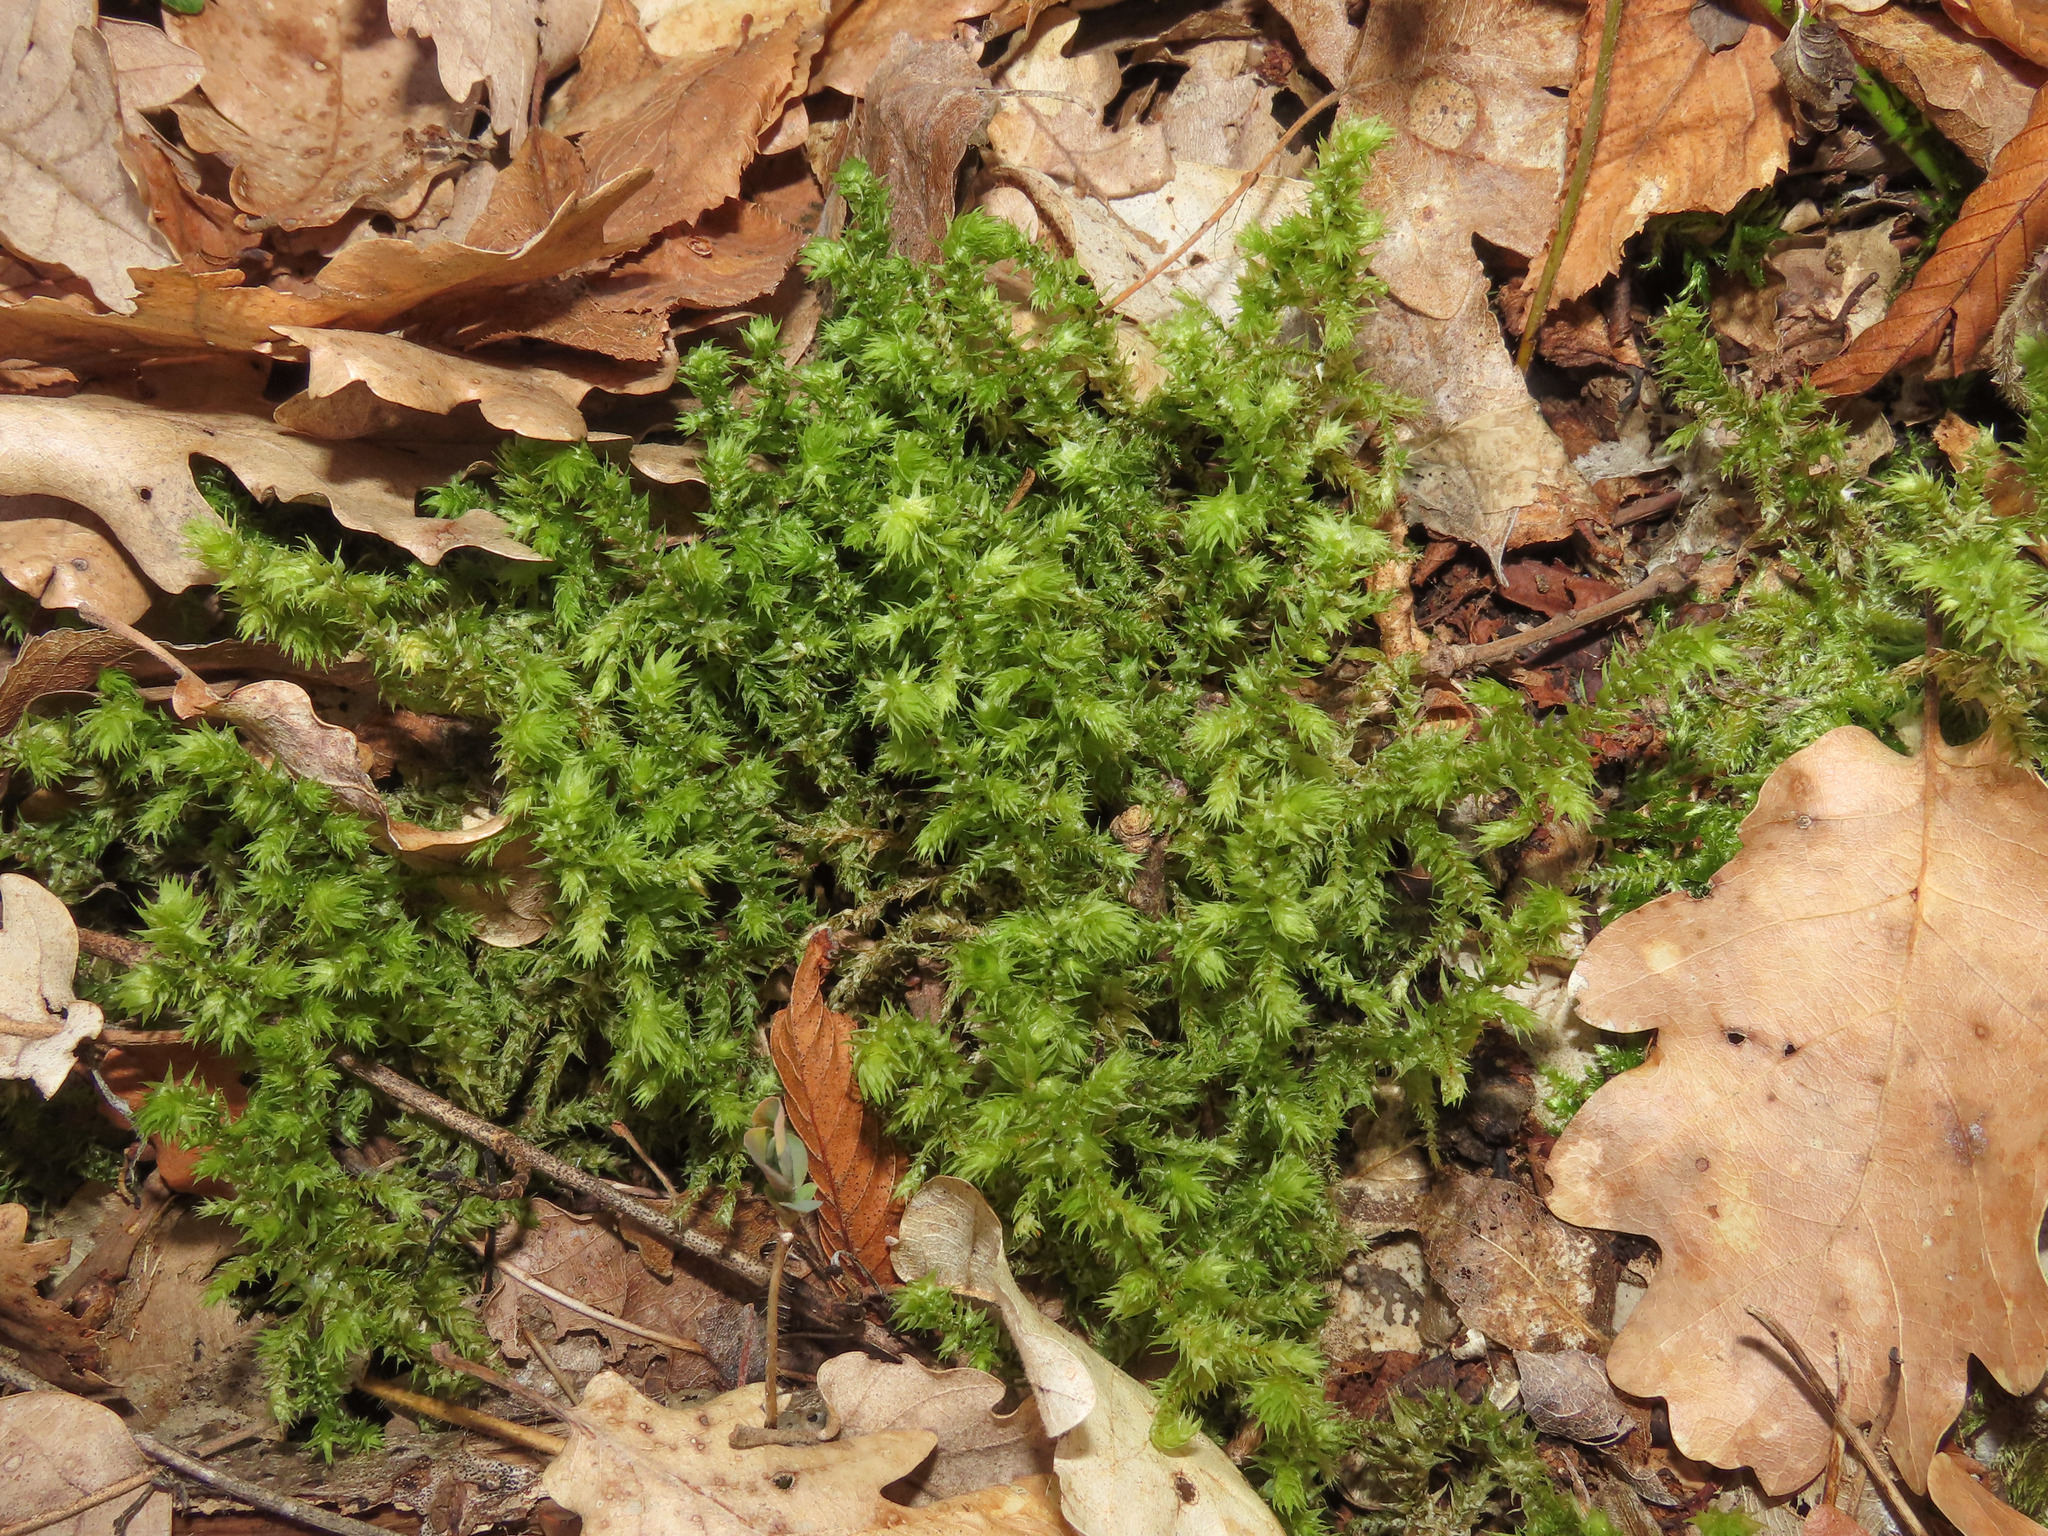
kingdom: Plantae
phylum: Bryophyta
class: Bryopsida
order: Hypnales
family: Hylocomiaceae
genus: Hylocomiadelphus
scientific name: Hylocomiadelphus triquetrus
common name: Rough goose neck moss
